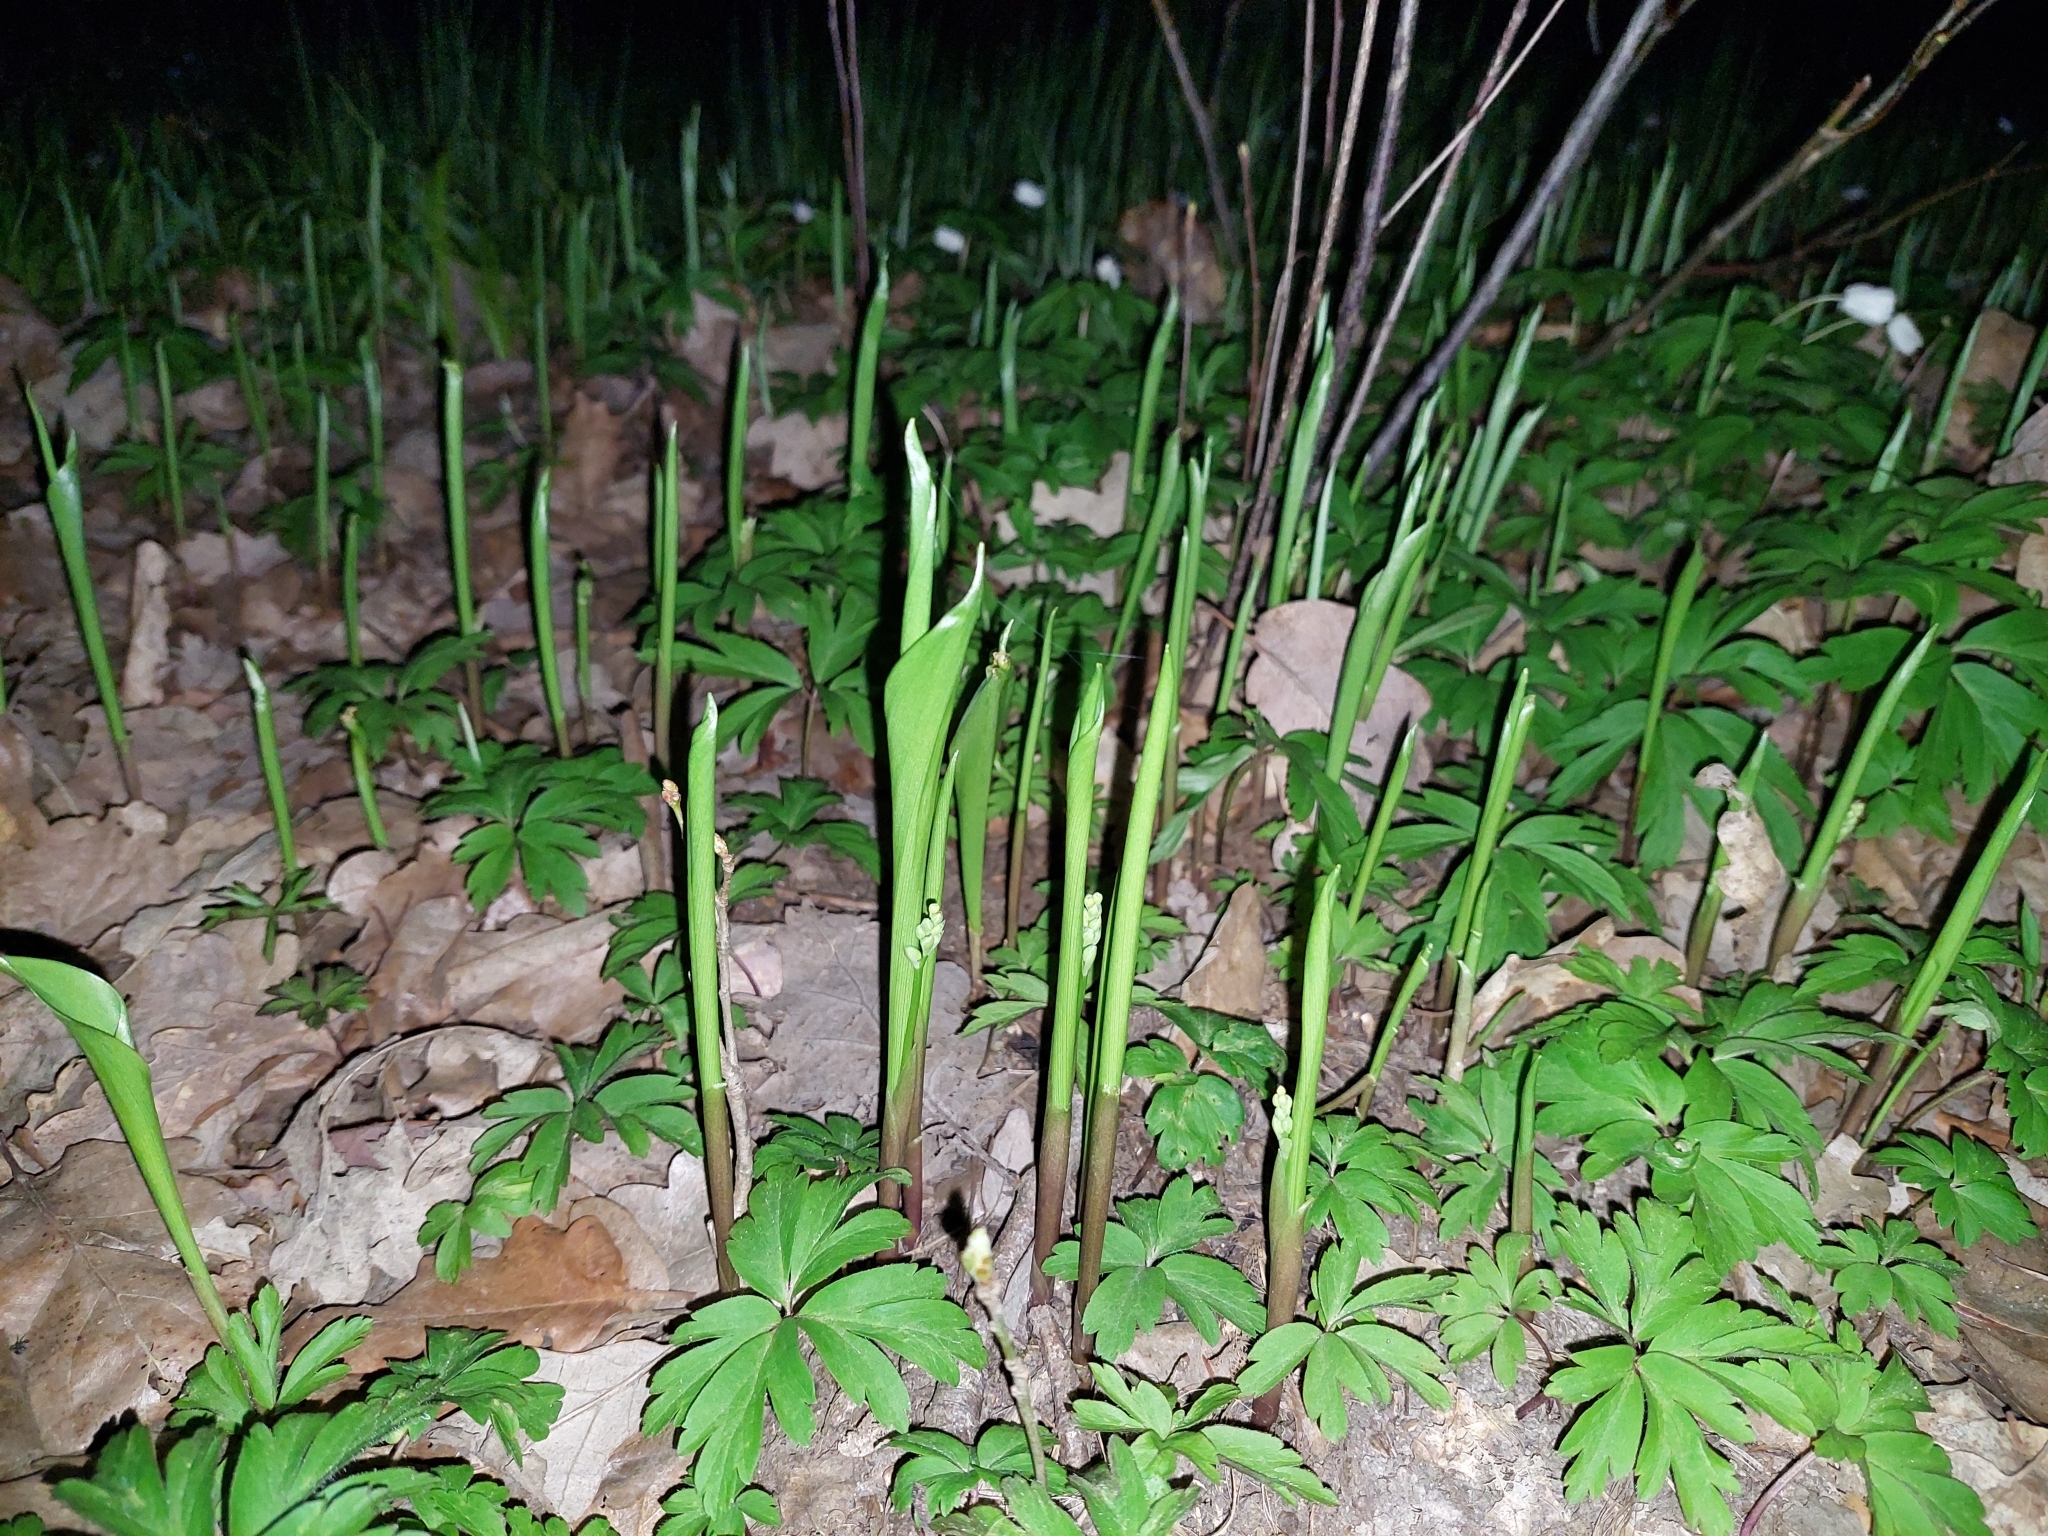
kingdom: Plantae
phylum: Tracheophyta
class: Liliopsida
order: Asparagales
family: Asparagaceae
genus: Convallaria
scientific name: Convallaria majalis
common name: Lily-of-the-valley
